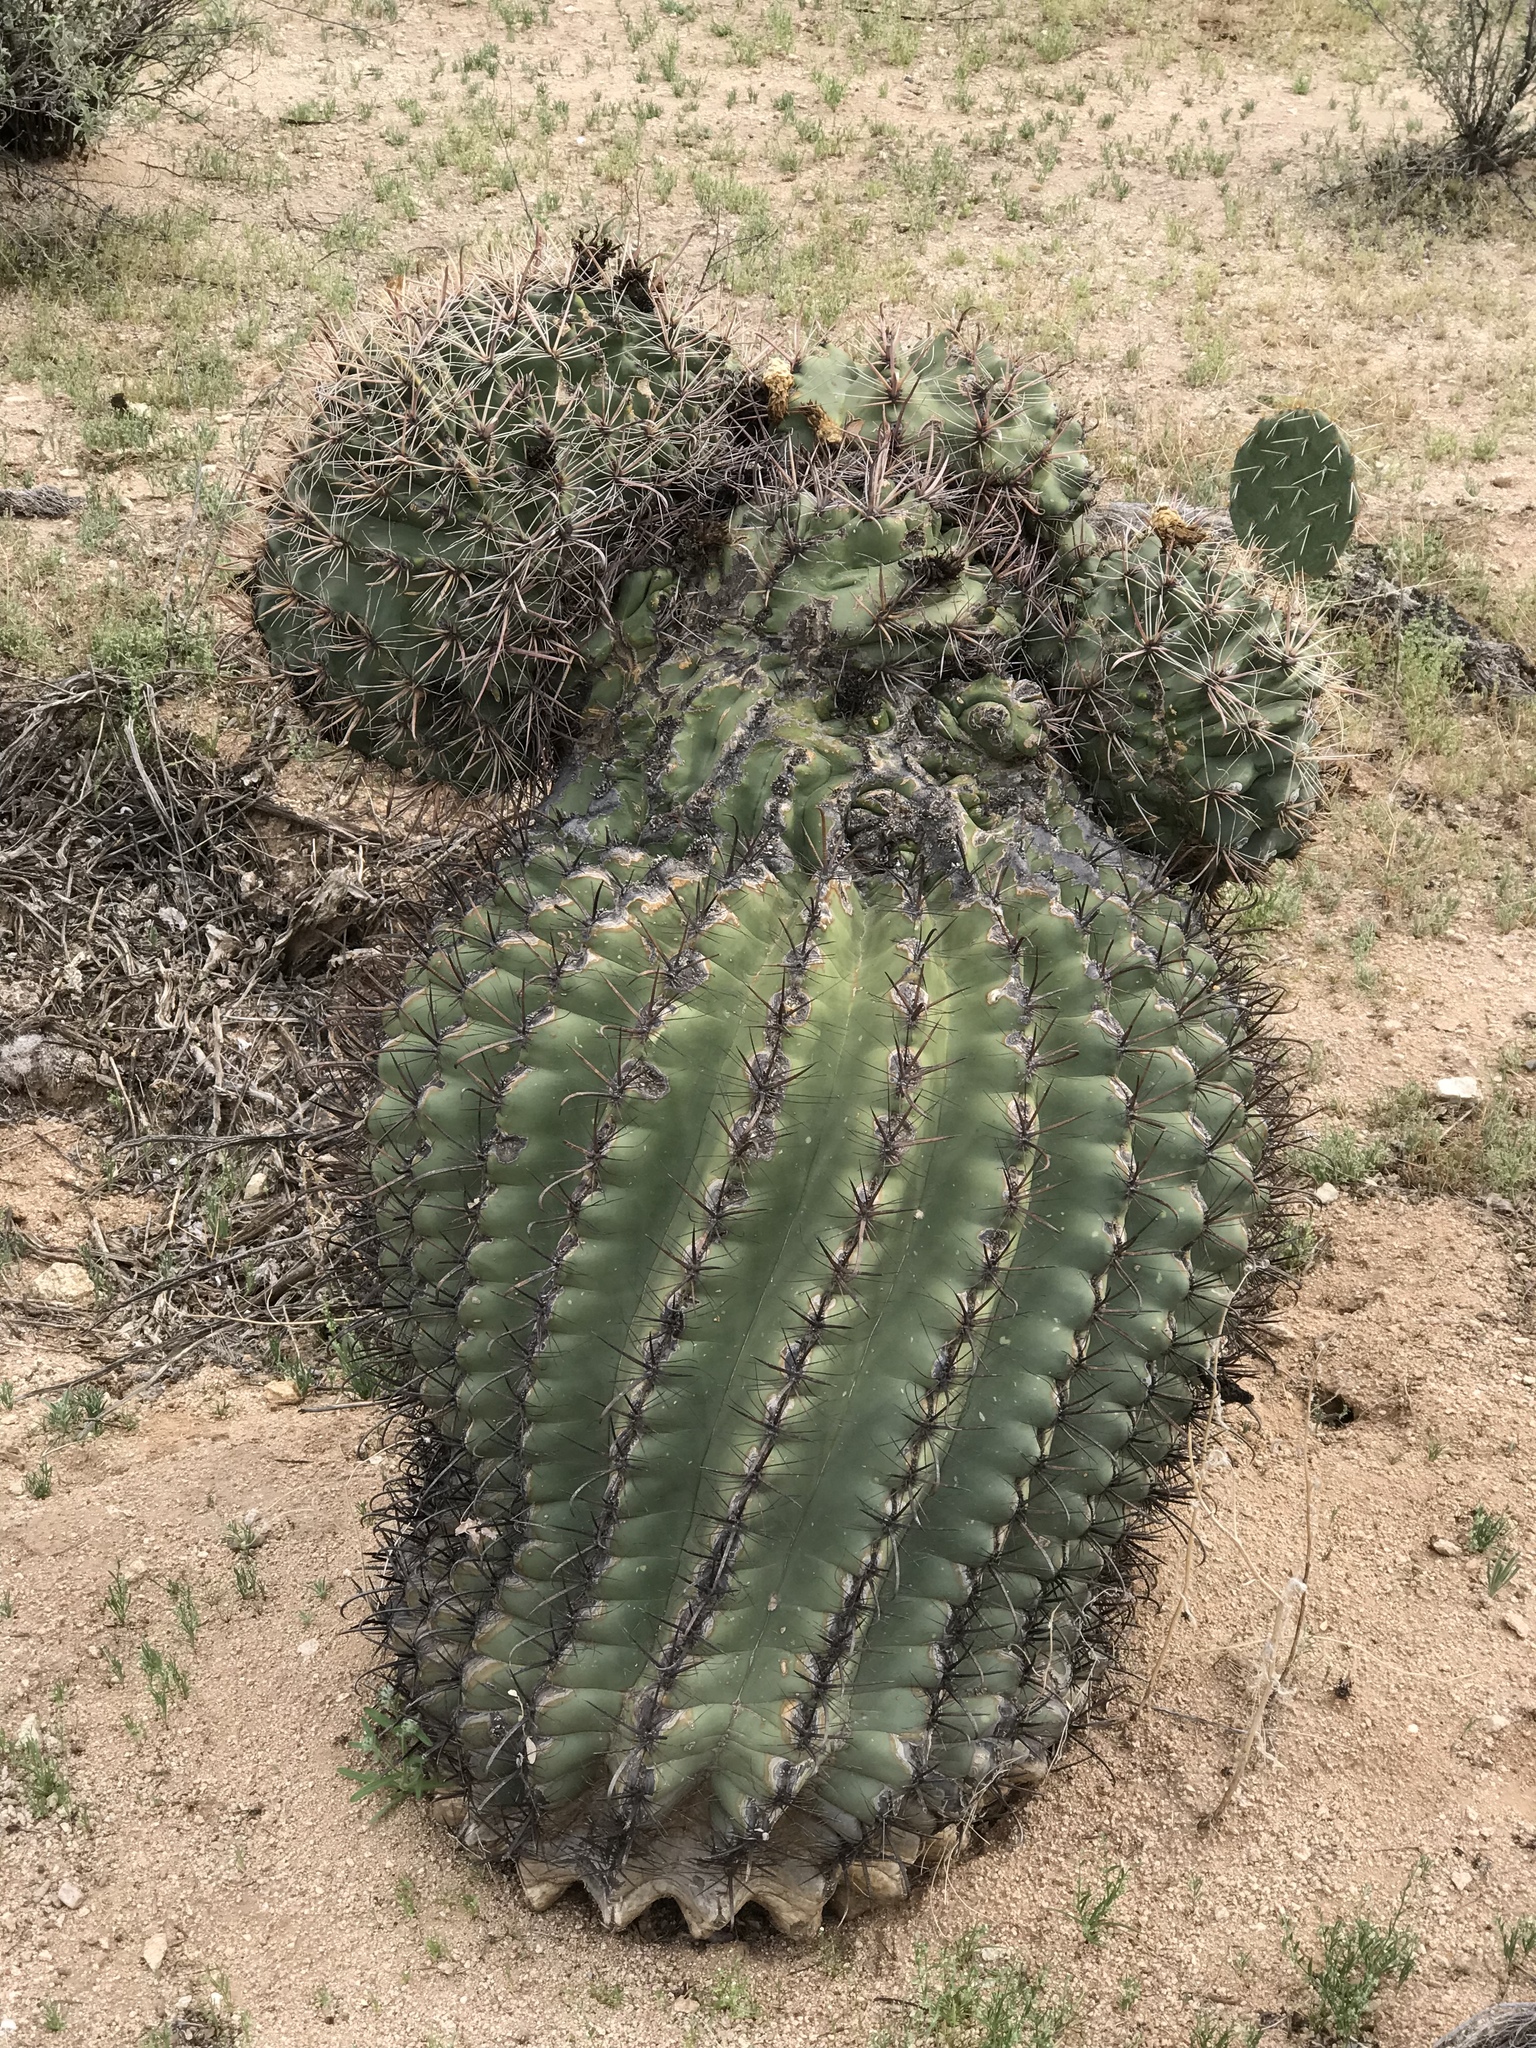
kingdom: Plantae
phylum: Tracheophyta
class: Magnoliopsida
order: Caryophyllales
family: Cactaceae
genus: Ferocactus
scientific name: Ferocactus wislizeni
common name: Candy barrel cactus
